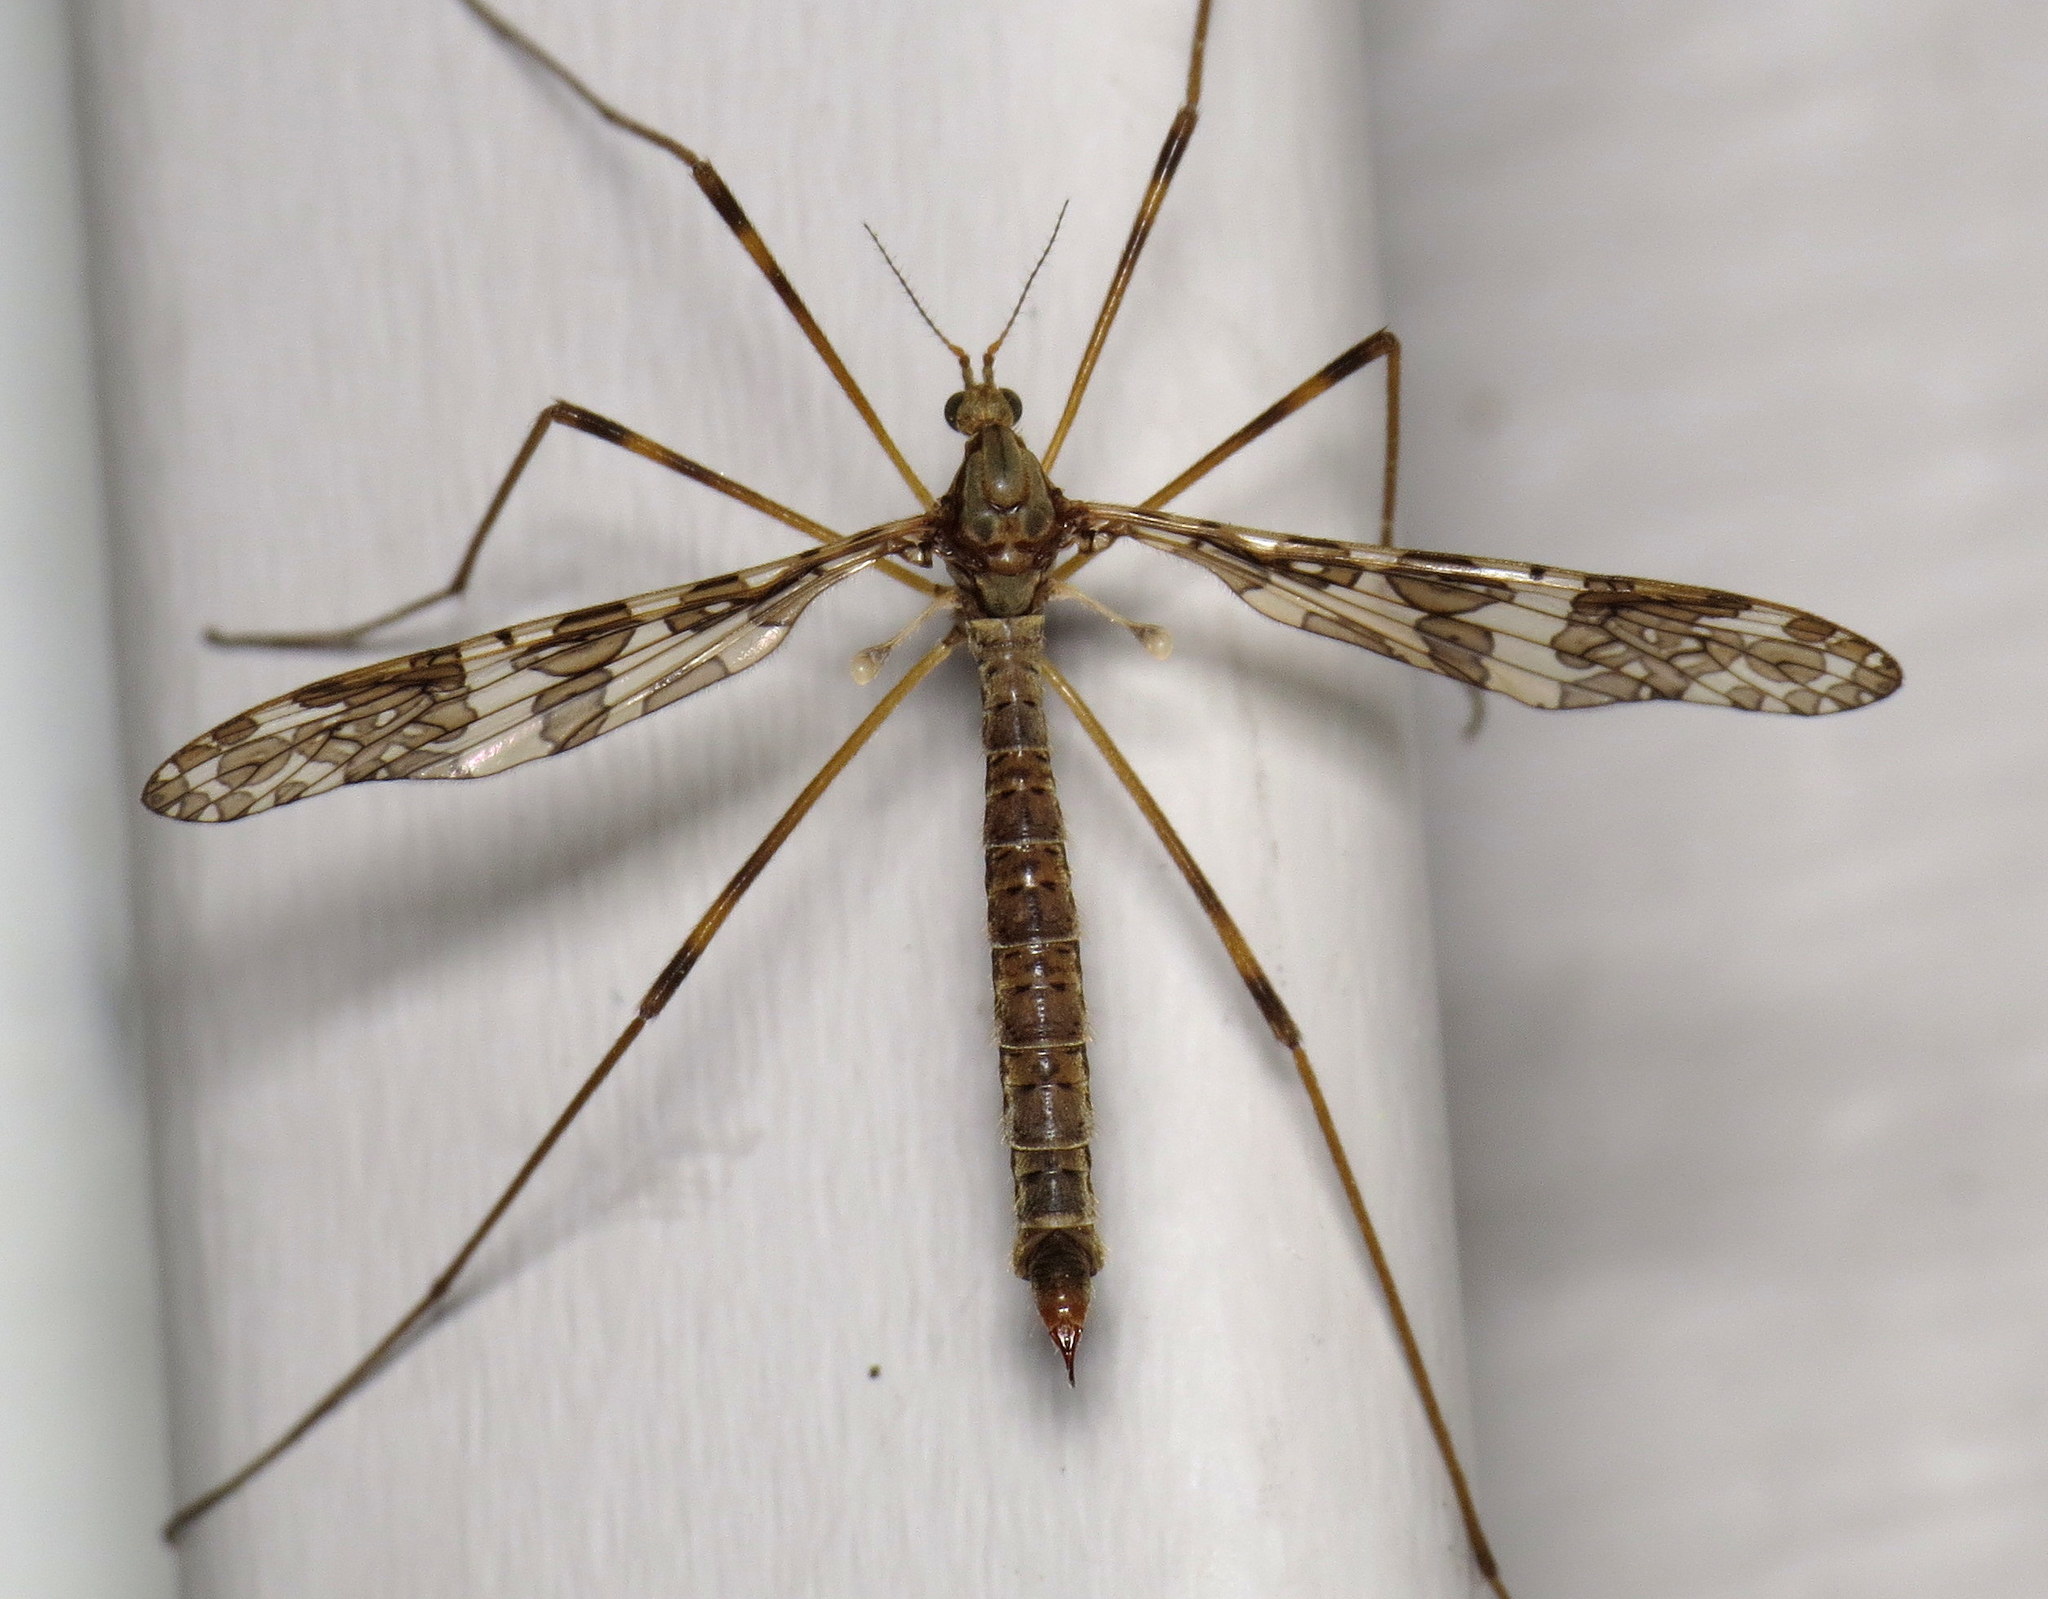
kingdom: Animalia
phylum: Arthropoda
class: Insecta
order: Diptera
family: Limoniidae
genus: Epiphragma
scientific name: Epiphragma fasciapenne
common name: Band-winged crane fly
